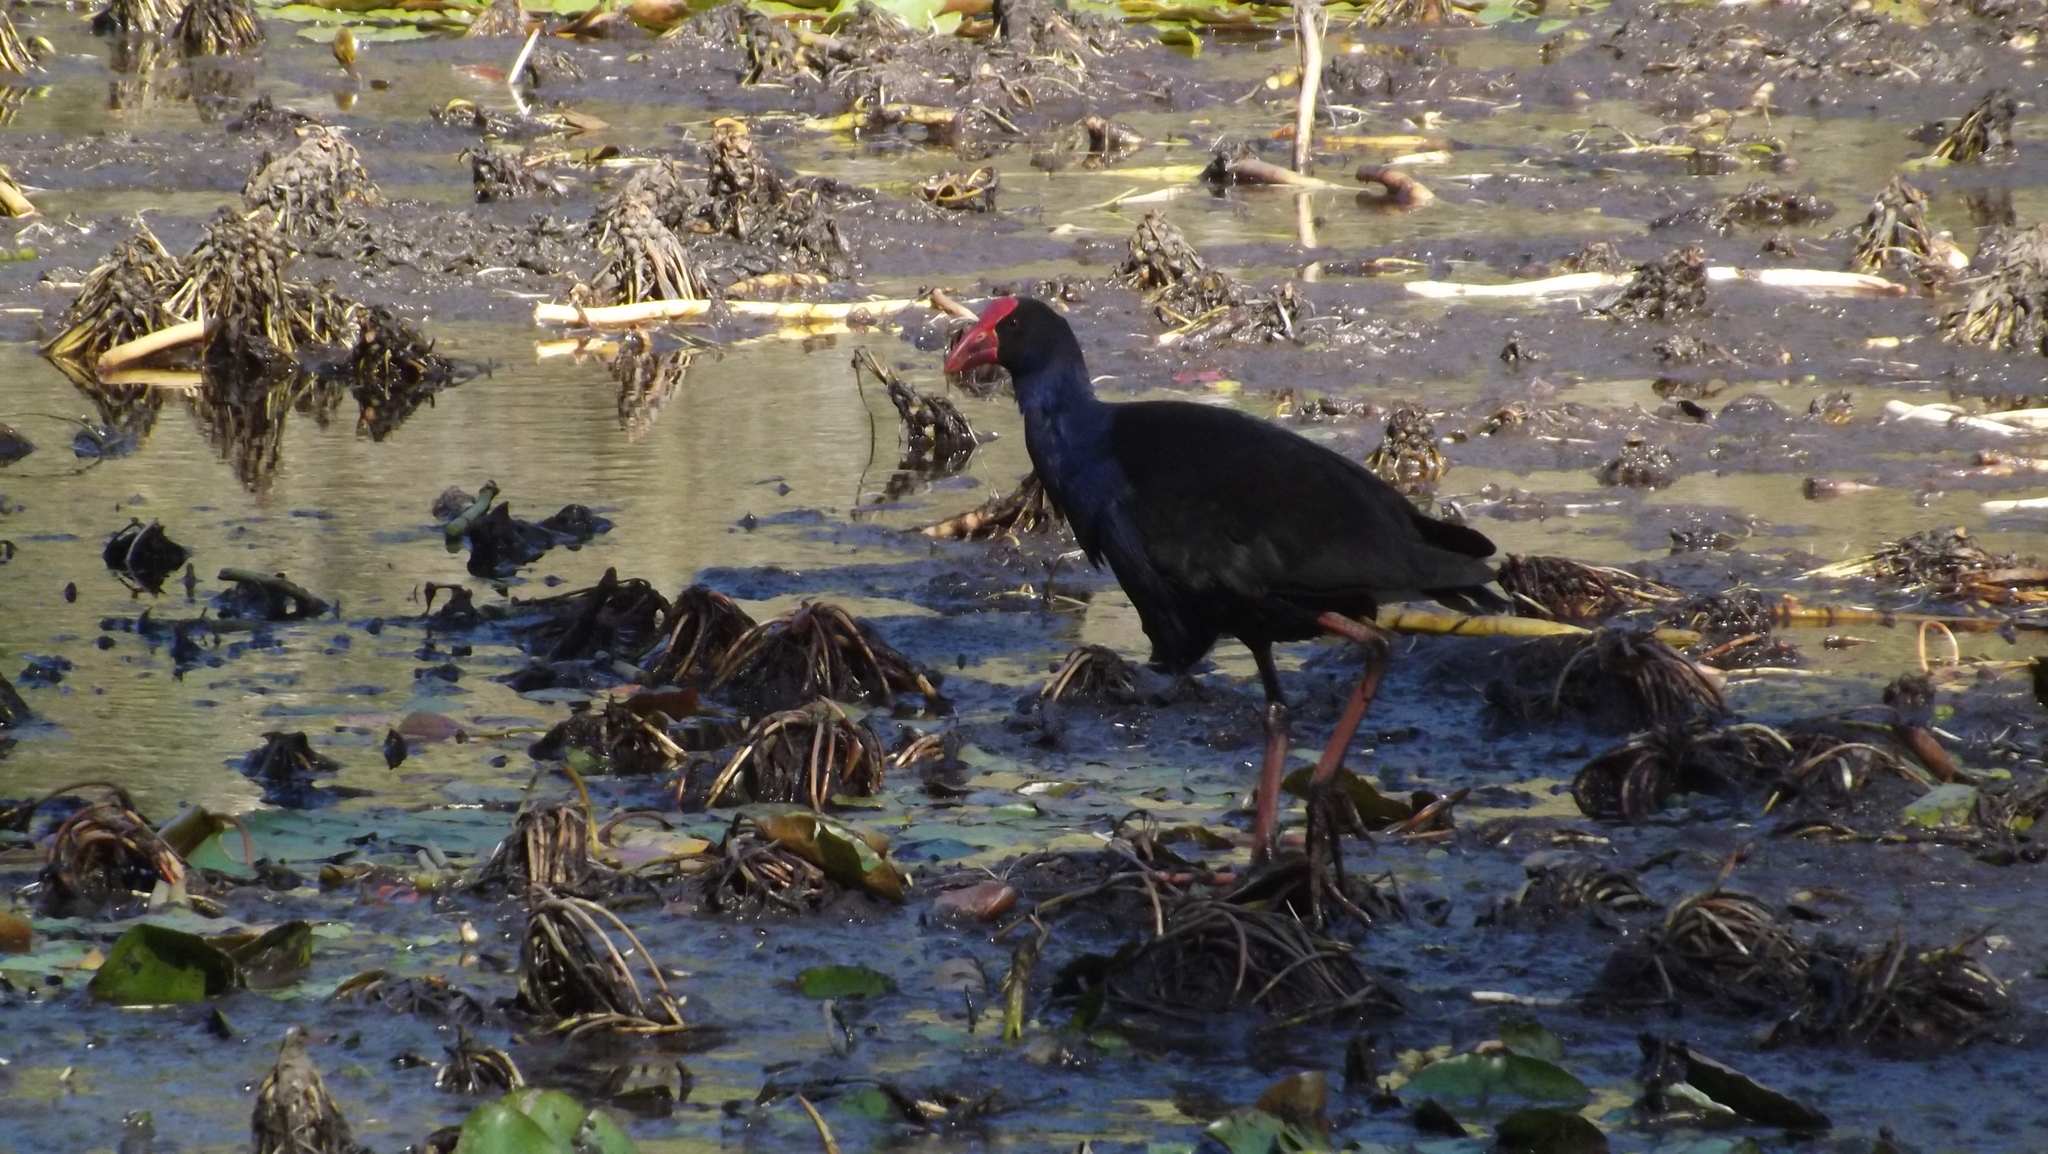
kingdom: Animalia
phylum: Chordata
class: Aves
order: Gruiformes
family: Rallidae
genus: Porphyrio
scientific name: Porphyrio melanotus
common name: Australasian swamphen
